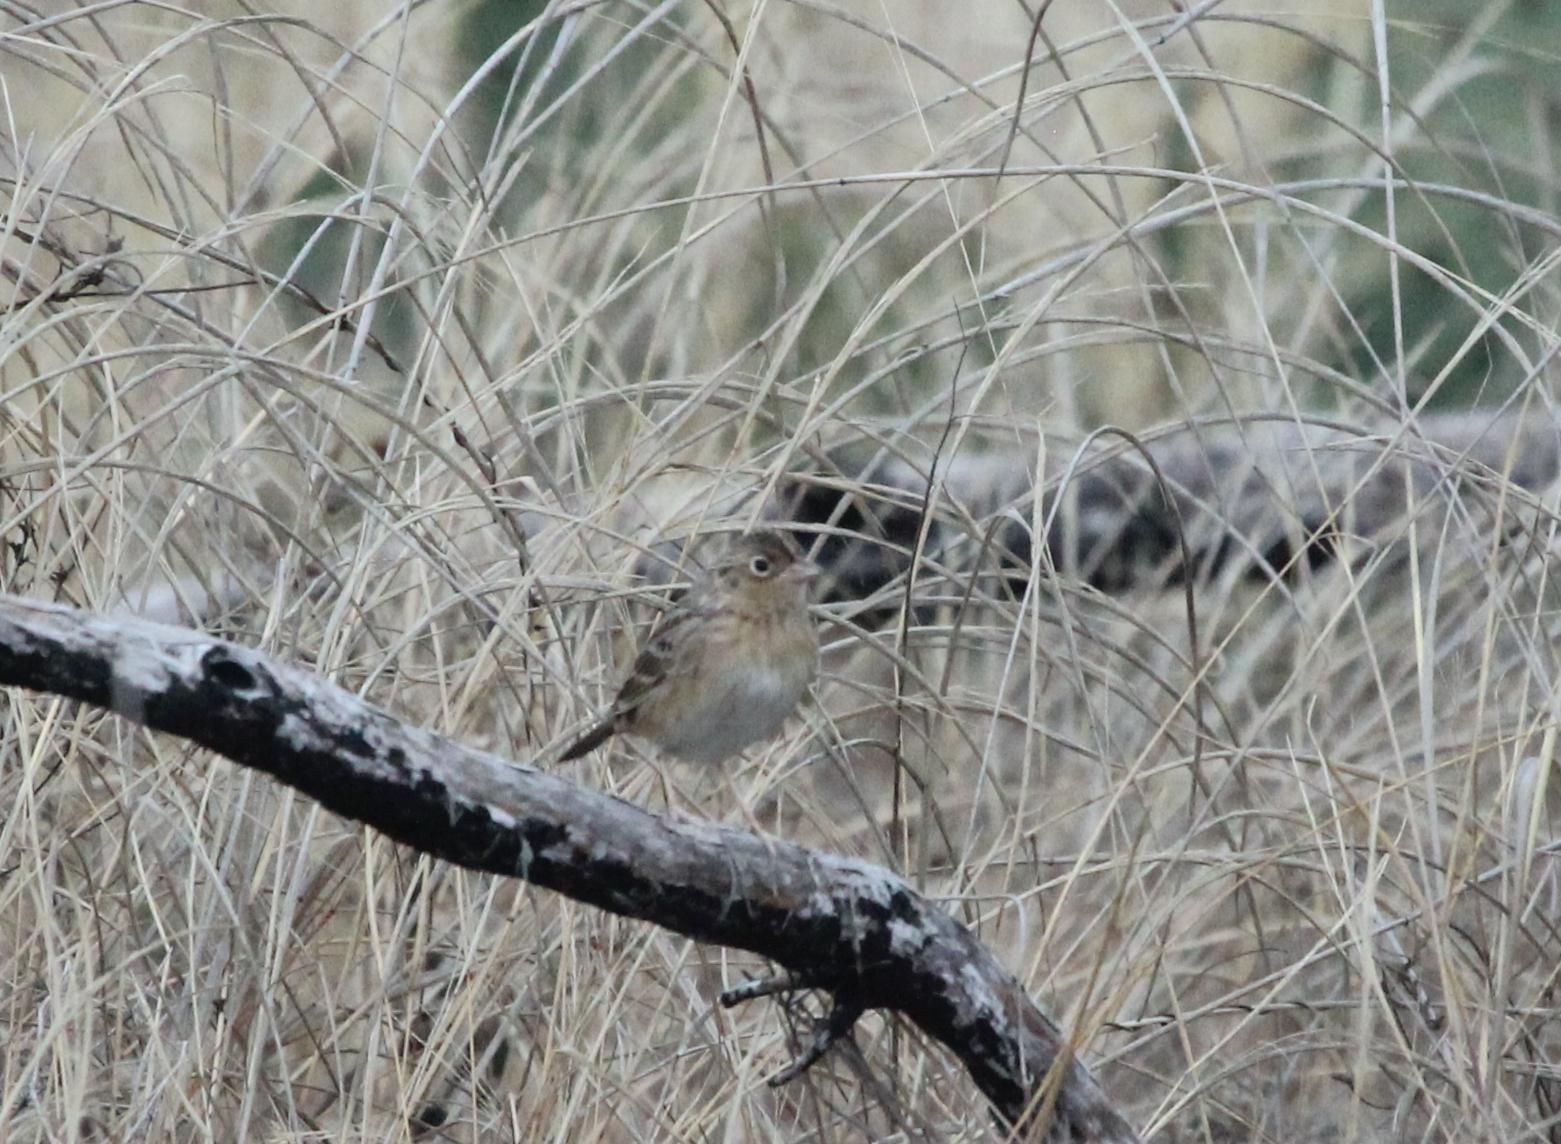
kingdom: Animalia
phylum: Chordata
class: Aves
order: Passeriformes
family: Passerellidae
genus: Ammodramus
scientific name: Ammodramus savannarum
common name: Grasshopper sparrow
